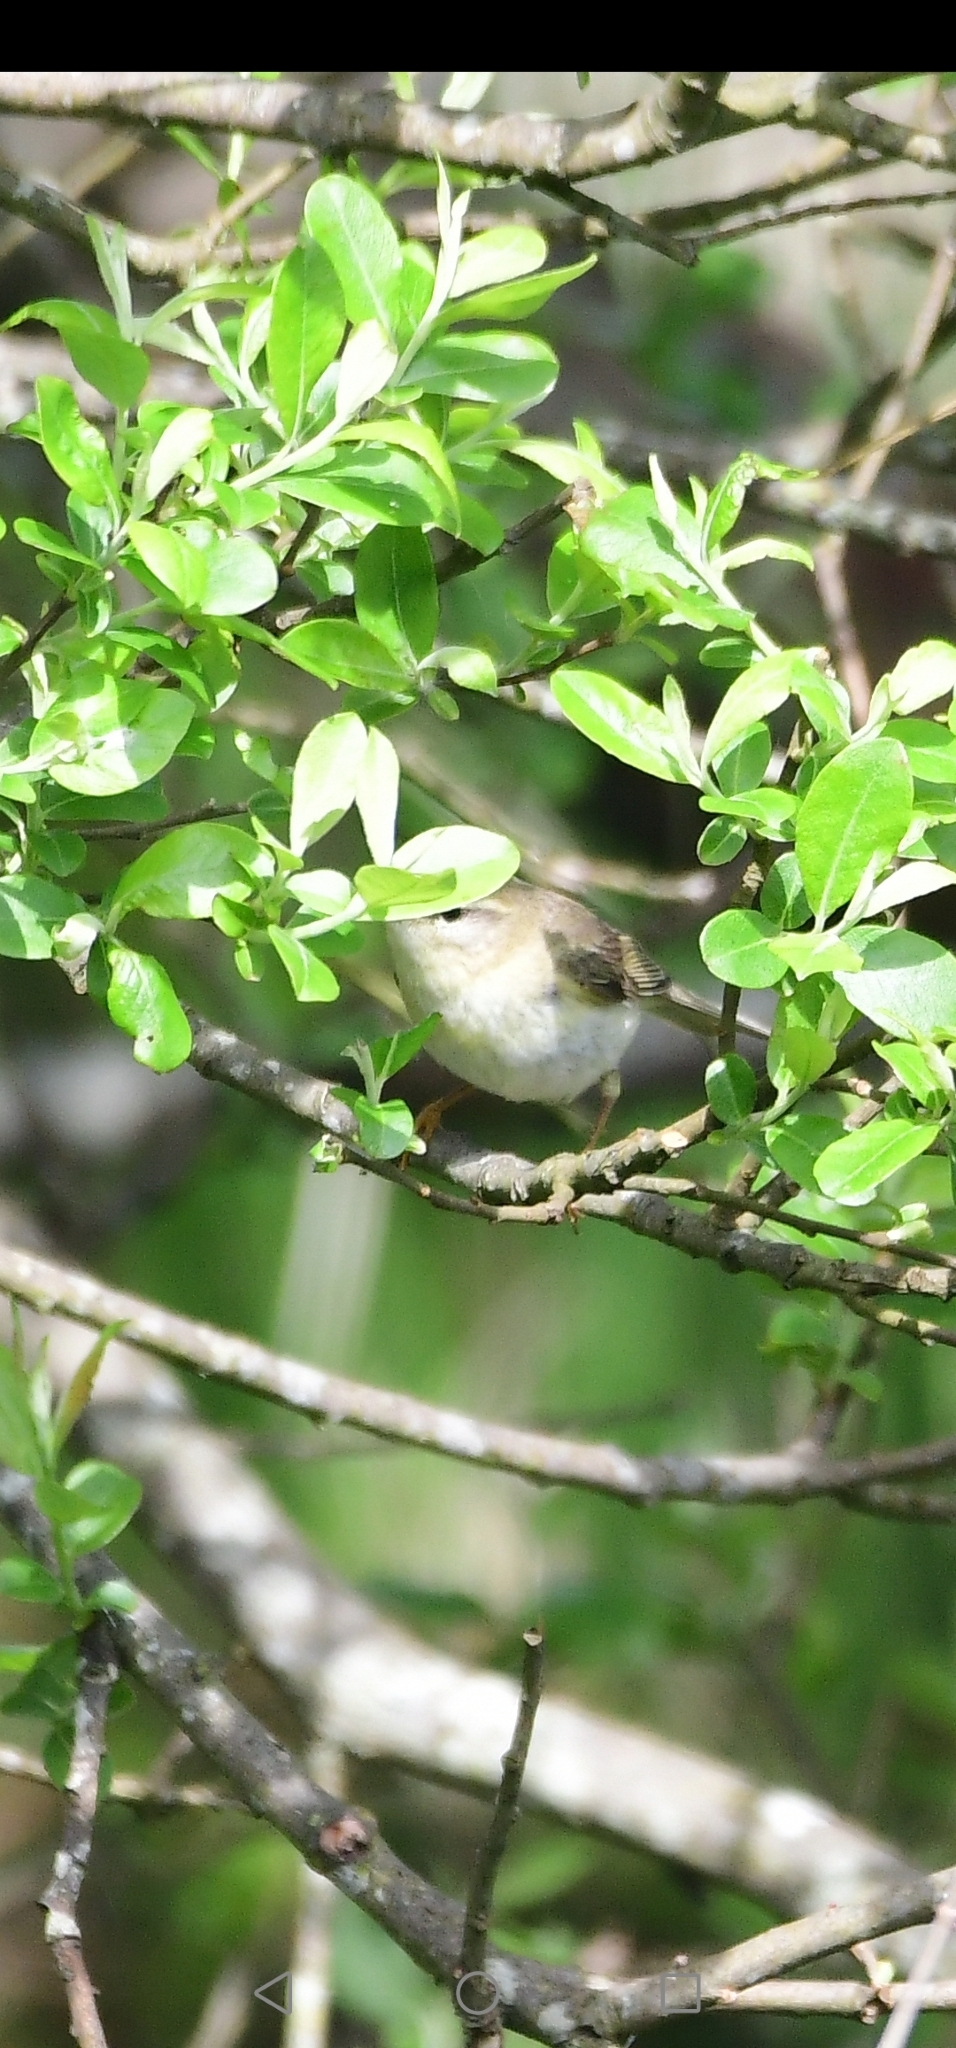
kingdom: Animalia
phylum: Chordata
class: Aves
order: Passeriformes
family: Phylloscopidae
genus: Phylloscopus
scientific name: Phylloscopus trochilus
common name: Willow warbler
